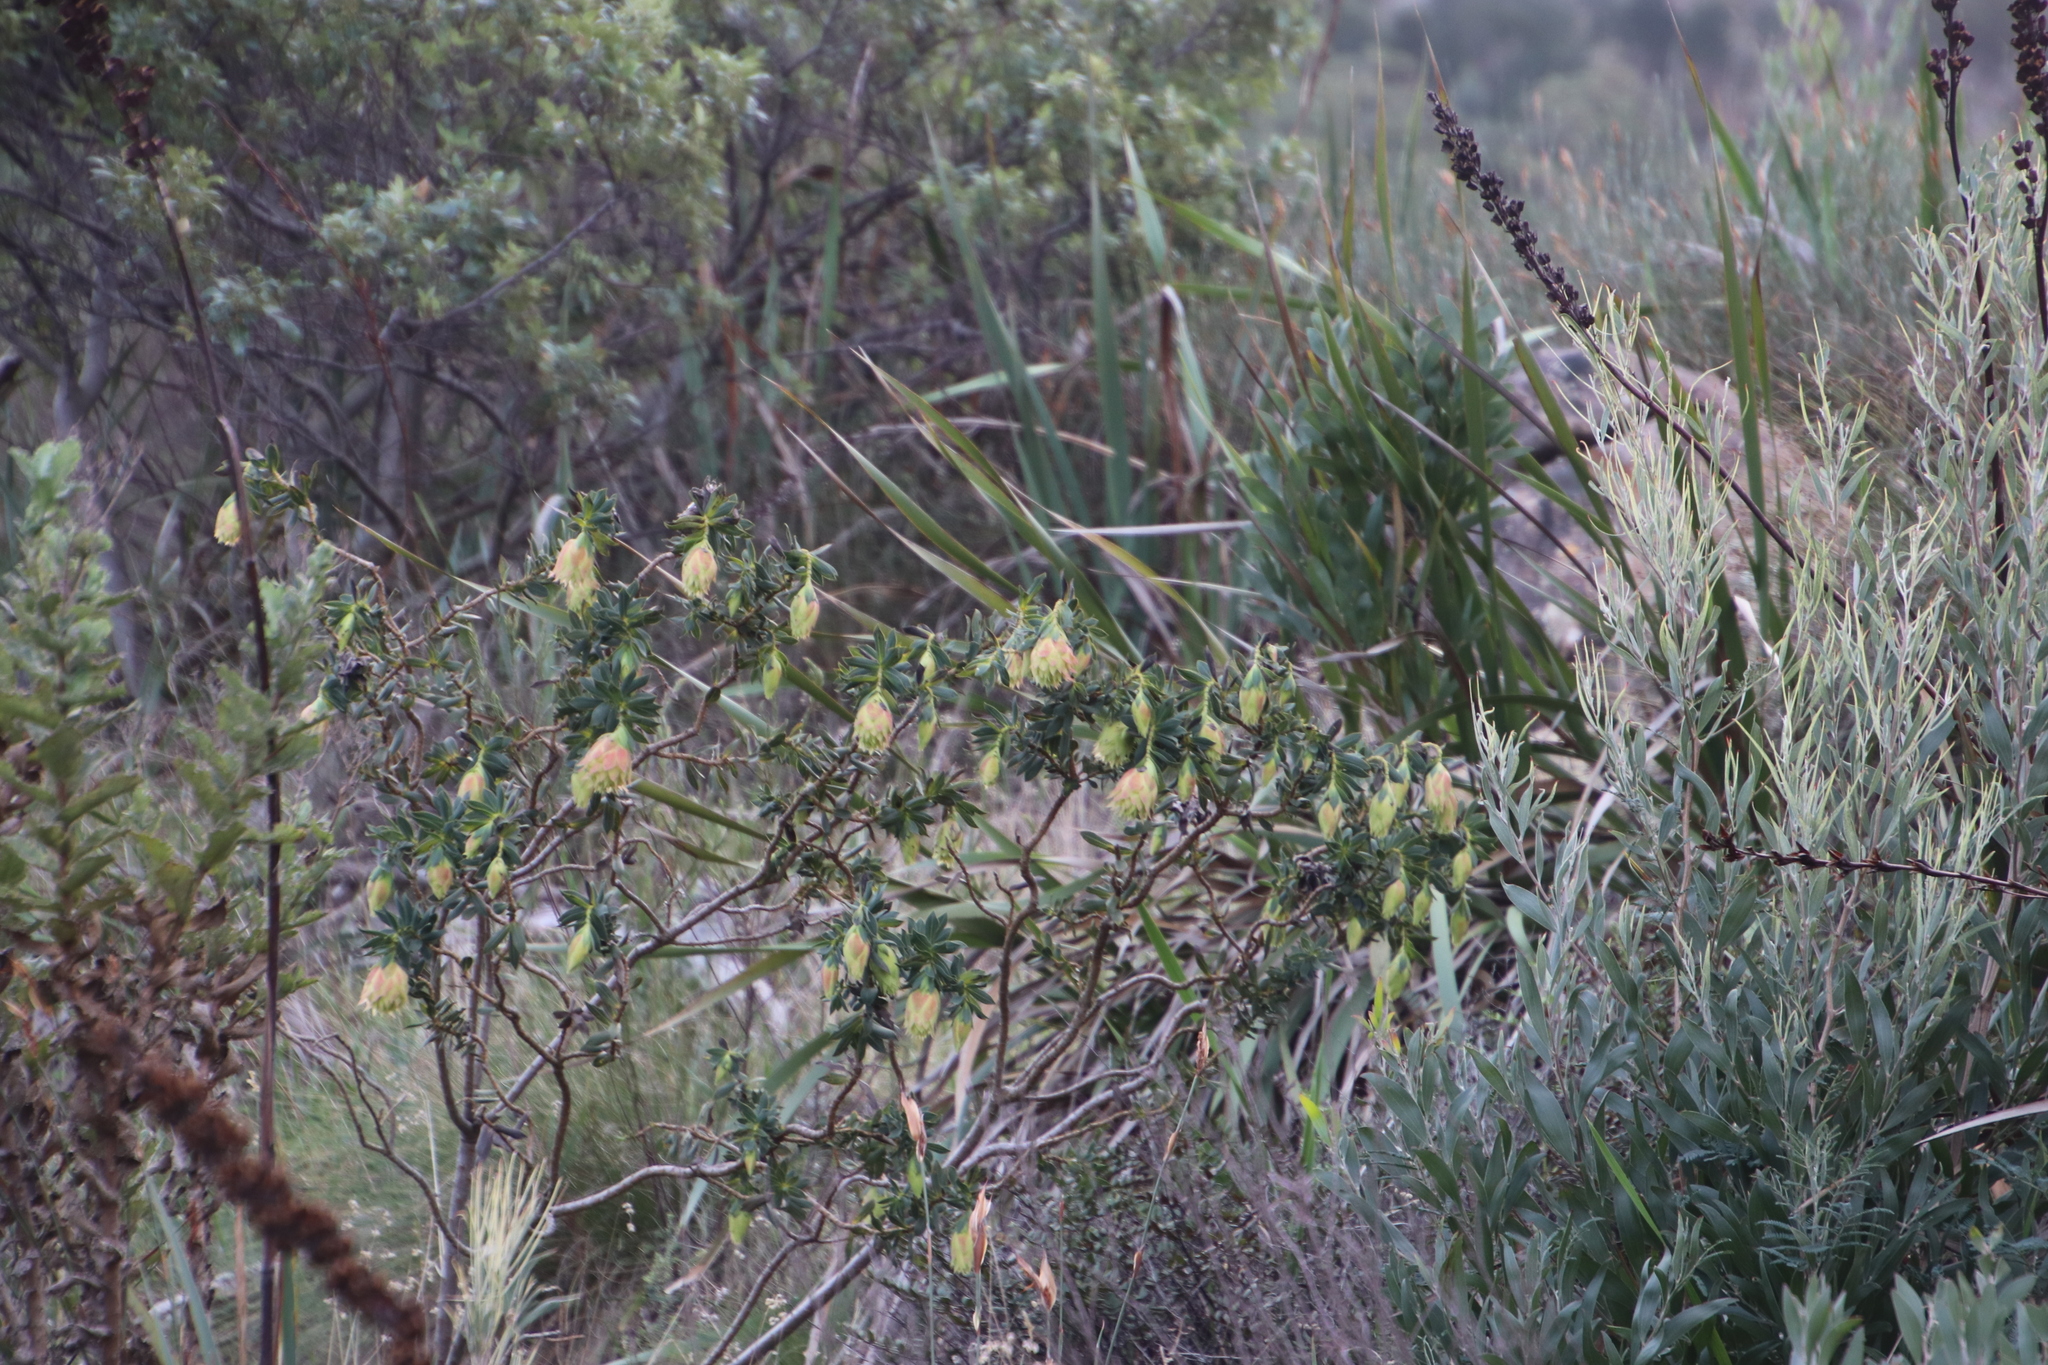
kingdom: Plantae
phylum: Tracheophyta
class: Magnoliopsida
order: Fabales
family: Fabaceae
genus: Liparia
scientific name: Liparia splendens
